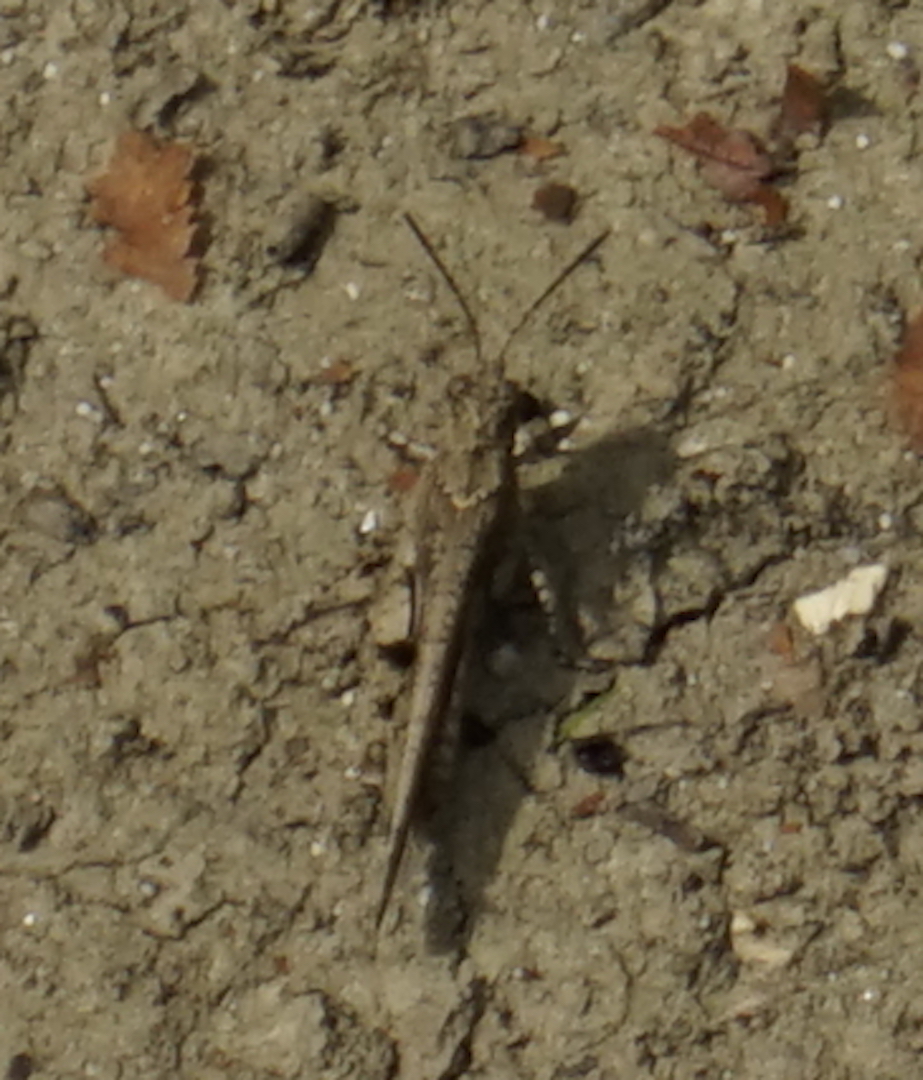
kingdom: Animalia
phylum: Arthropoda
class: Insecta
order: Orthoptera
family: Acrididae
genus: Trilophidia
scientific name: Trilophidia annulata
